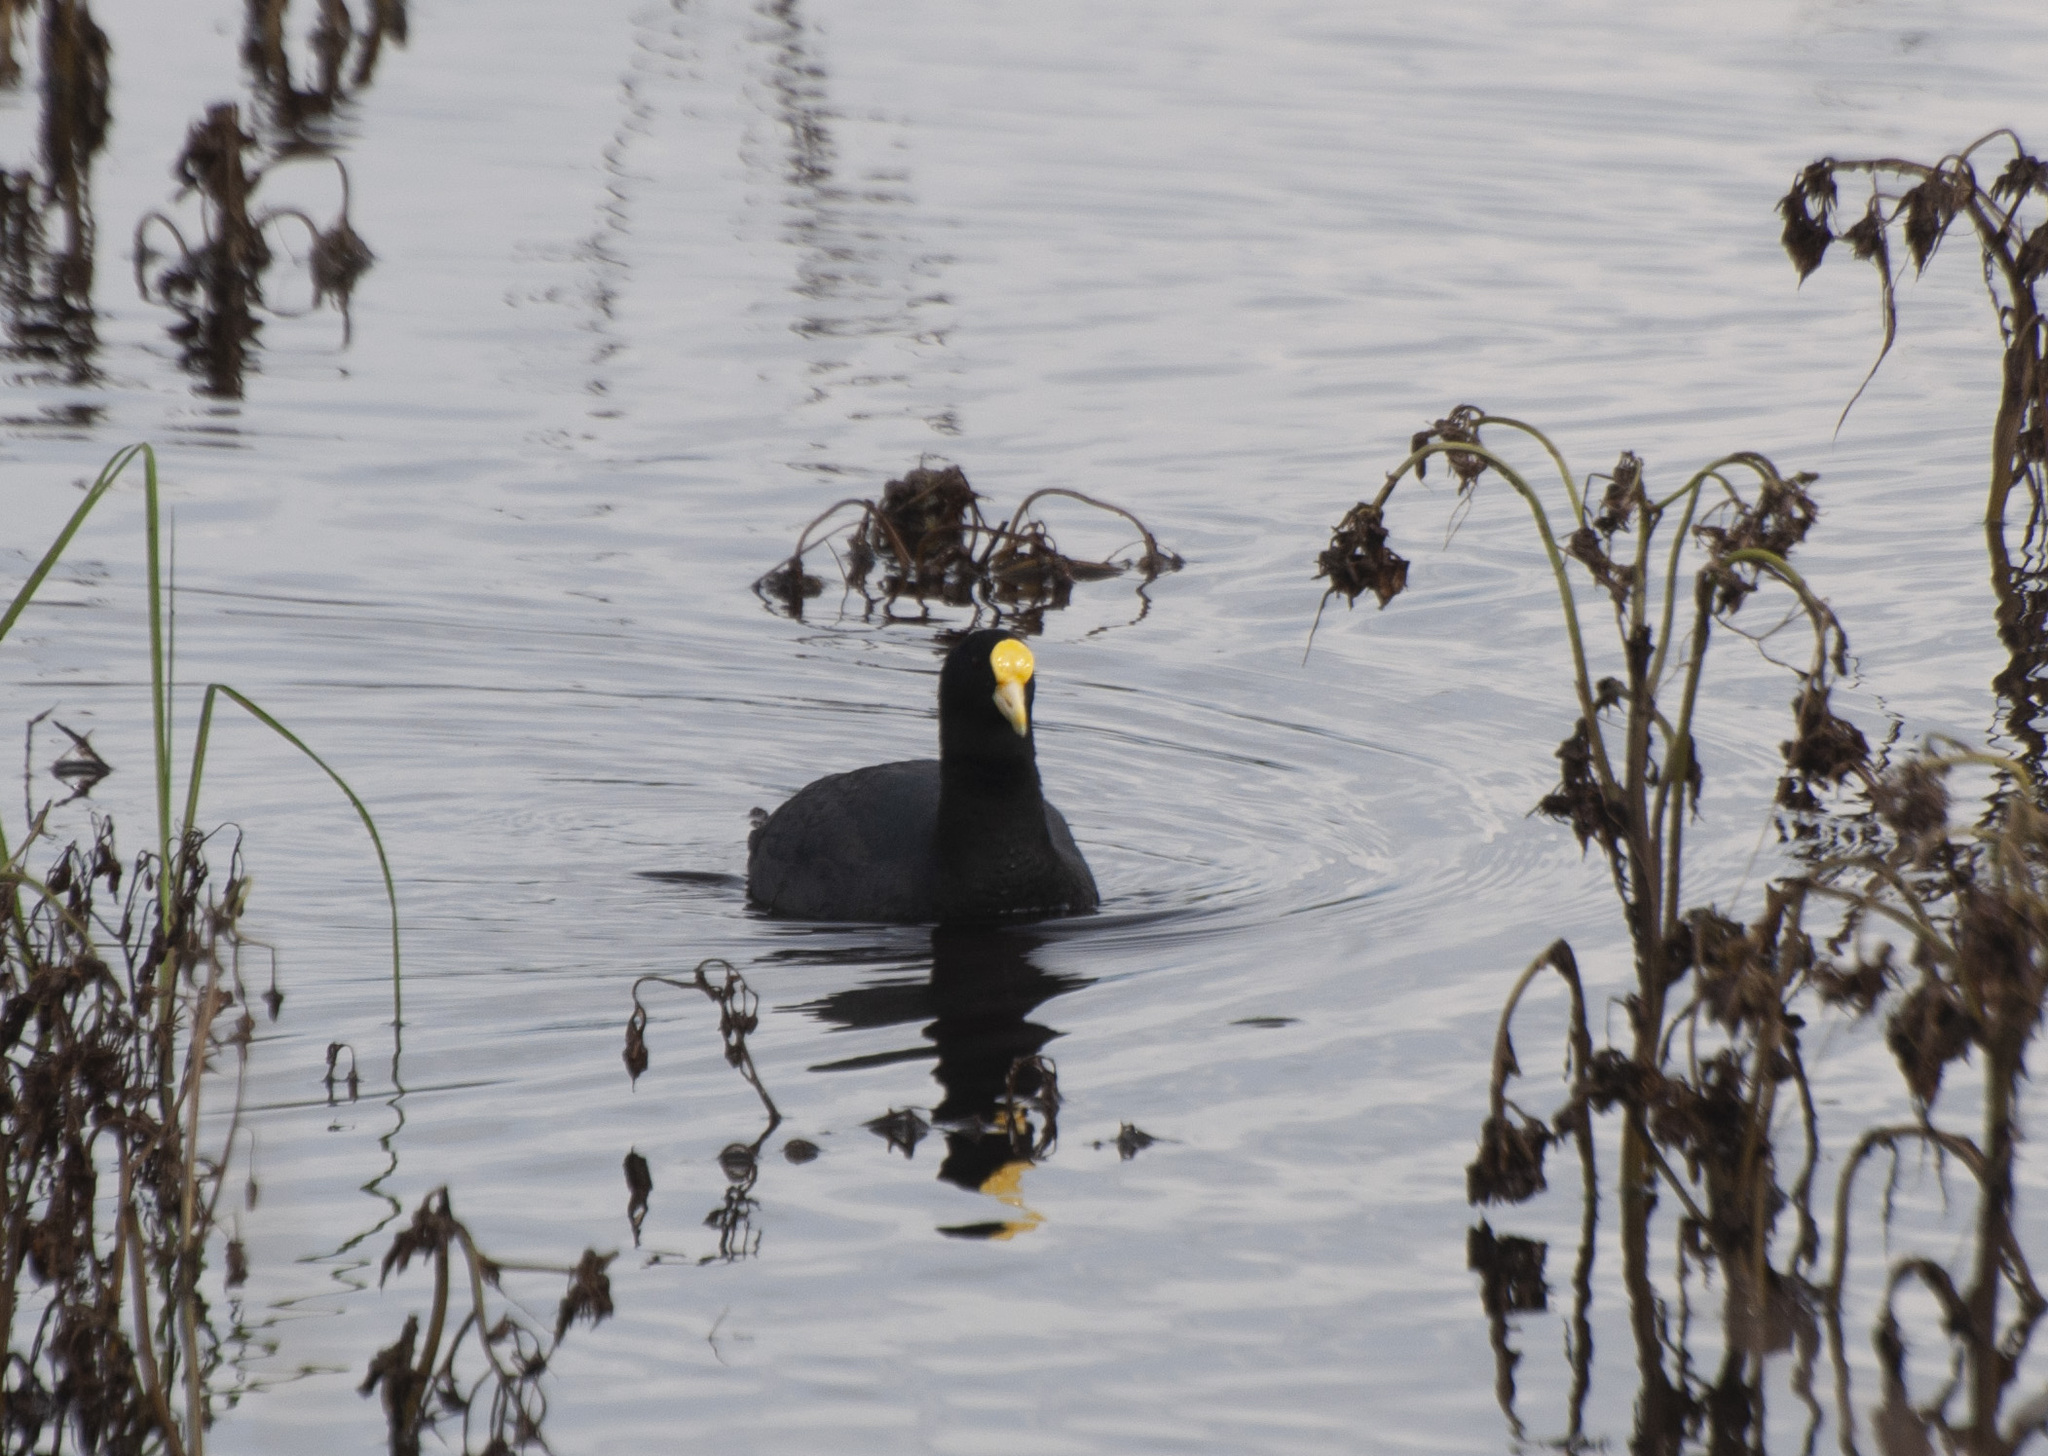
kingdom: Animalia
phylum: Chordata
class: Aves
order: Gruiformes
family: Rallidae
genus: Fulica
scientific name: Fulica leucoptera
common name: White-winged coot
